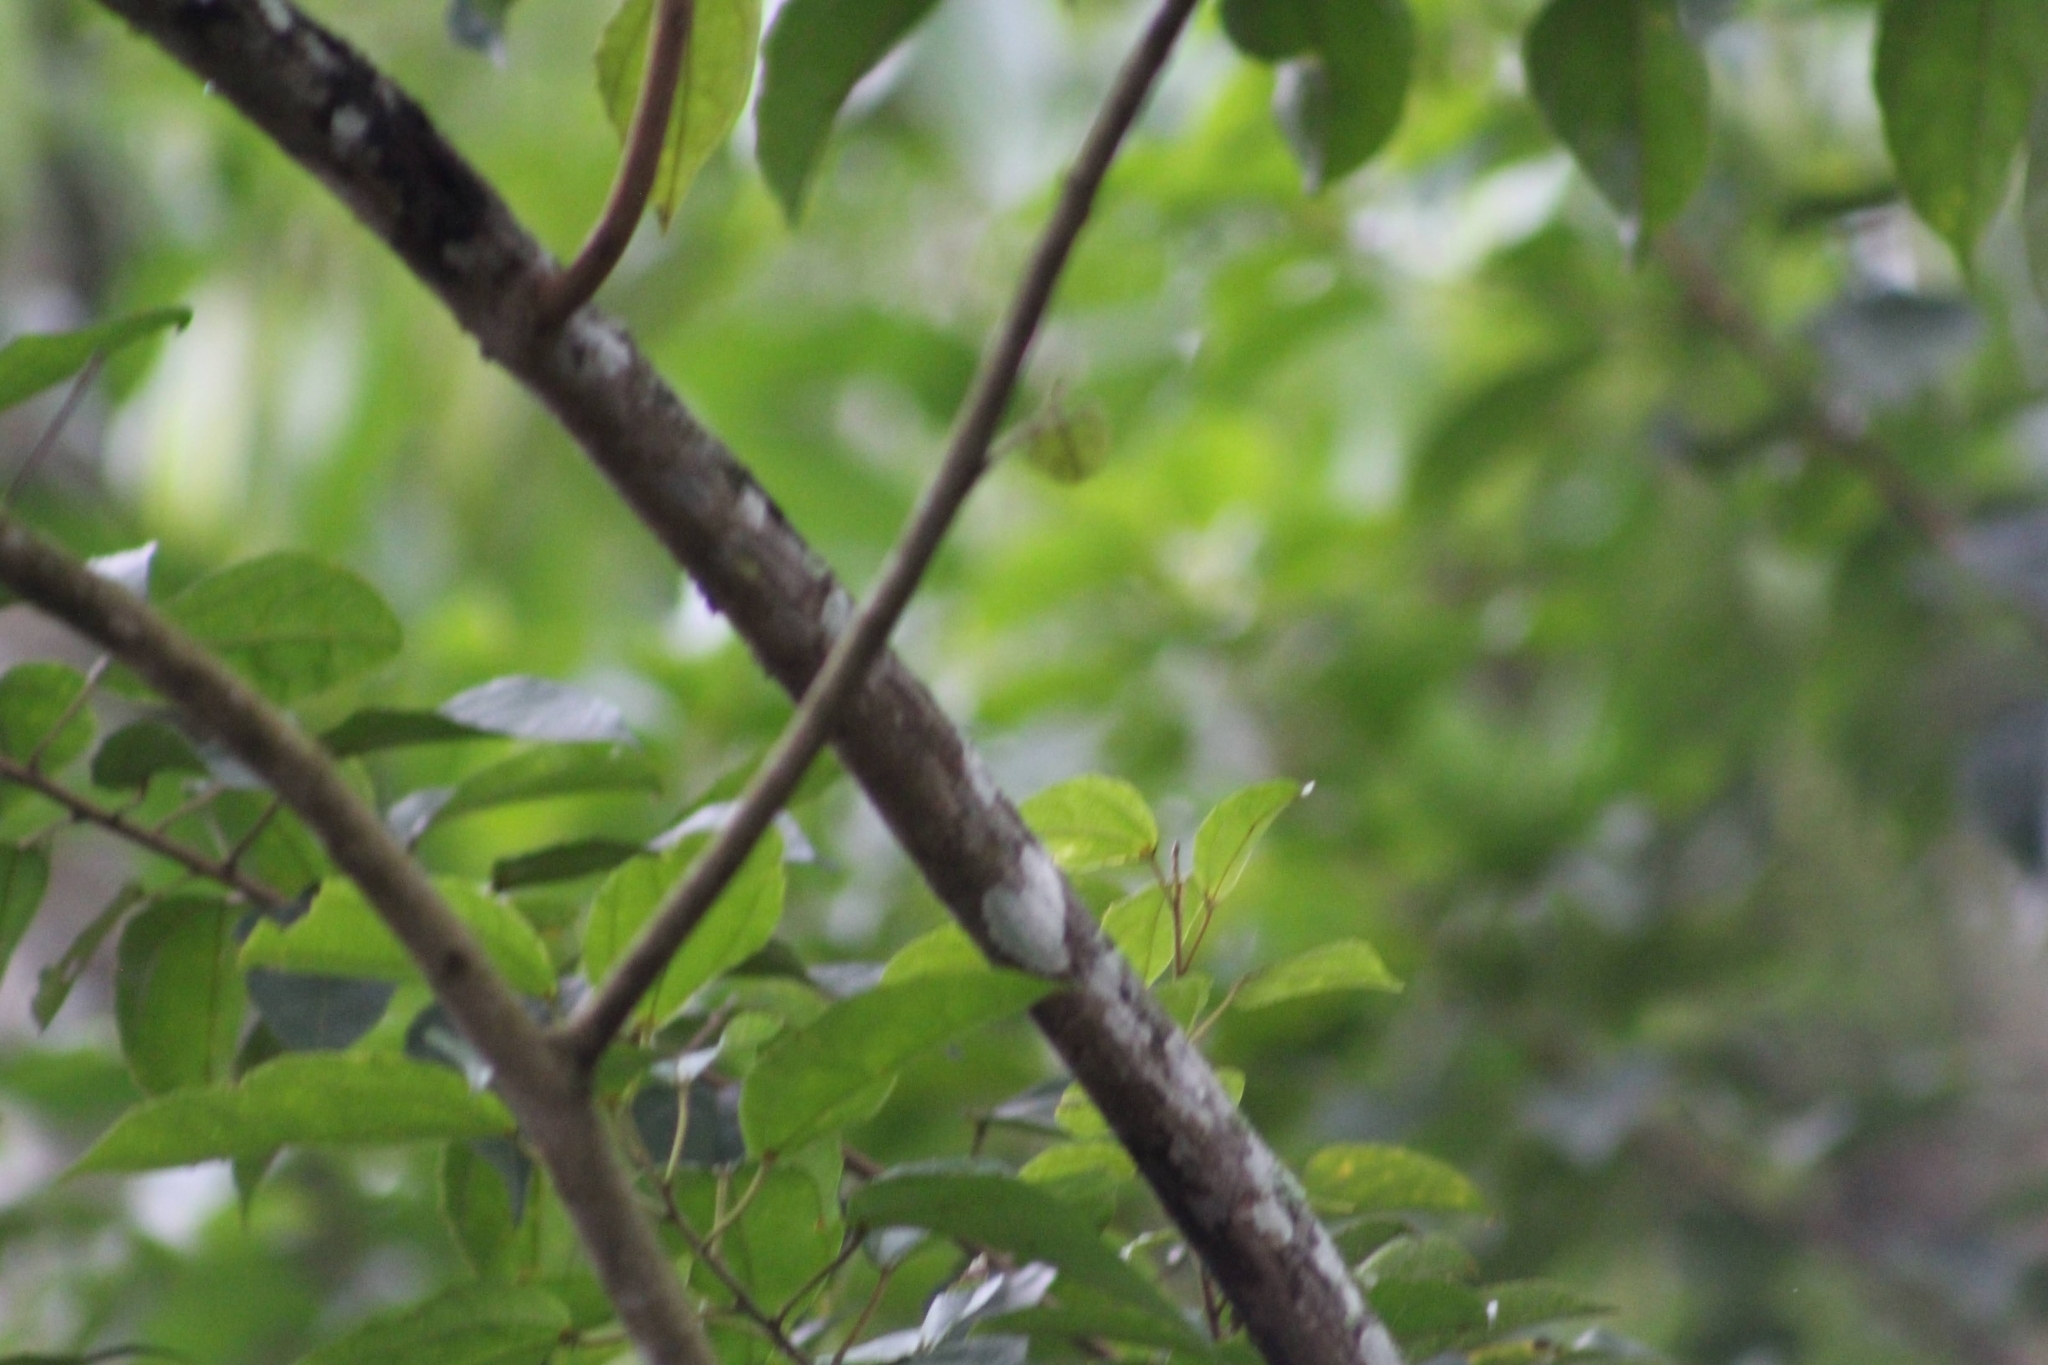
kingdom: Animalia
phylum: Chordata
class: Aves
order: Passeriformes
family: Thraupidae
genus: Sicalis
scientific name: Sicalis flaveola
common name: Saffron finch
